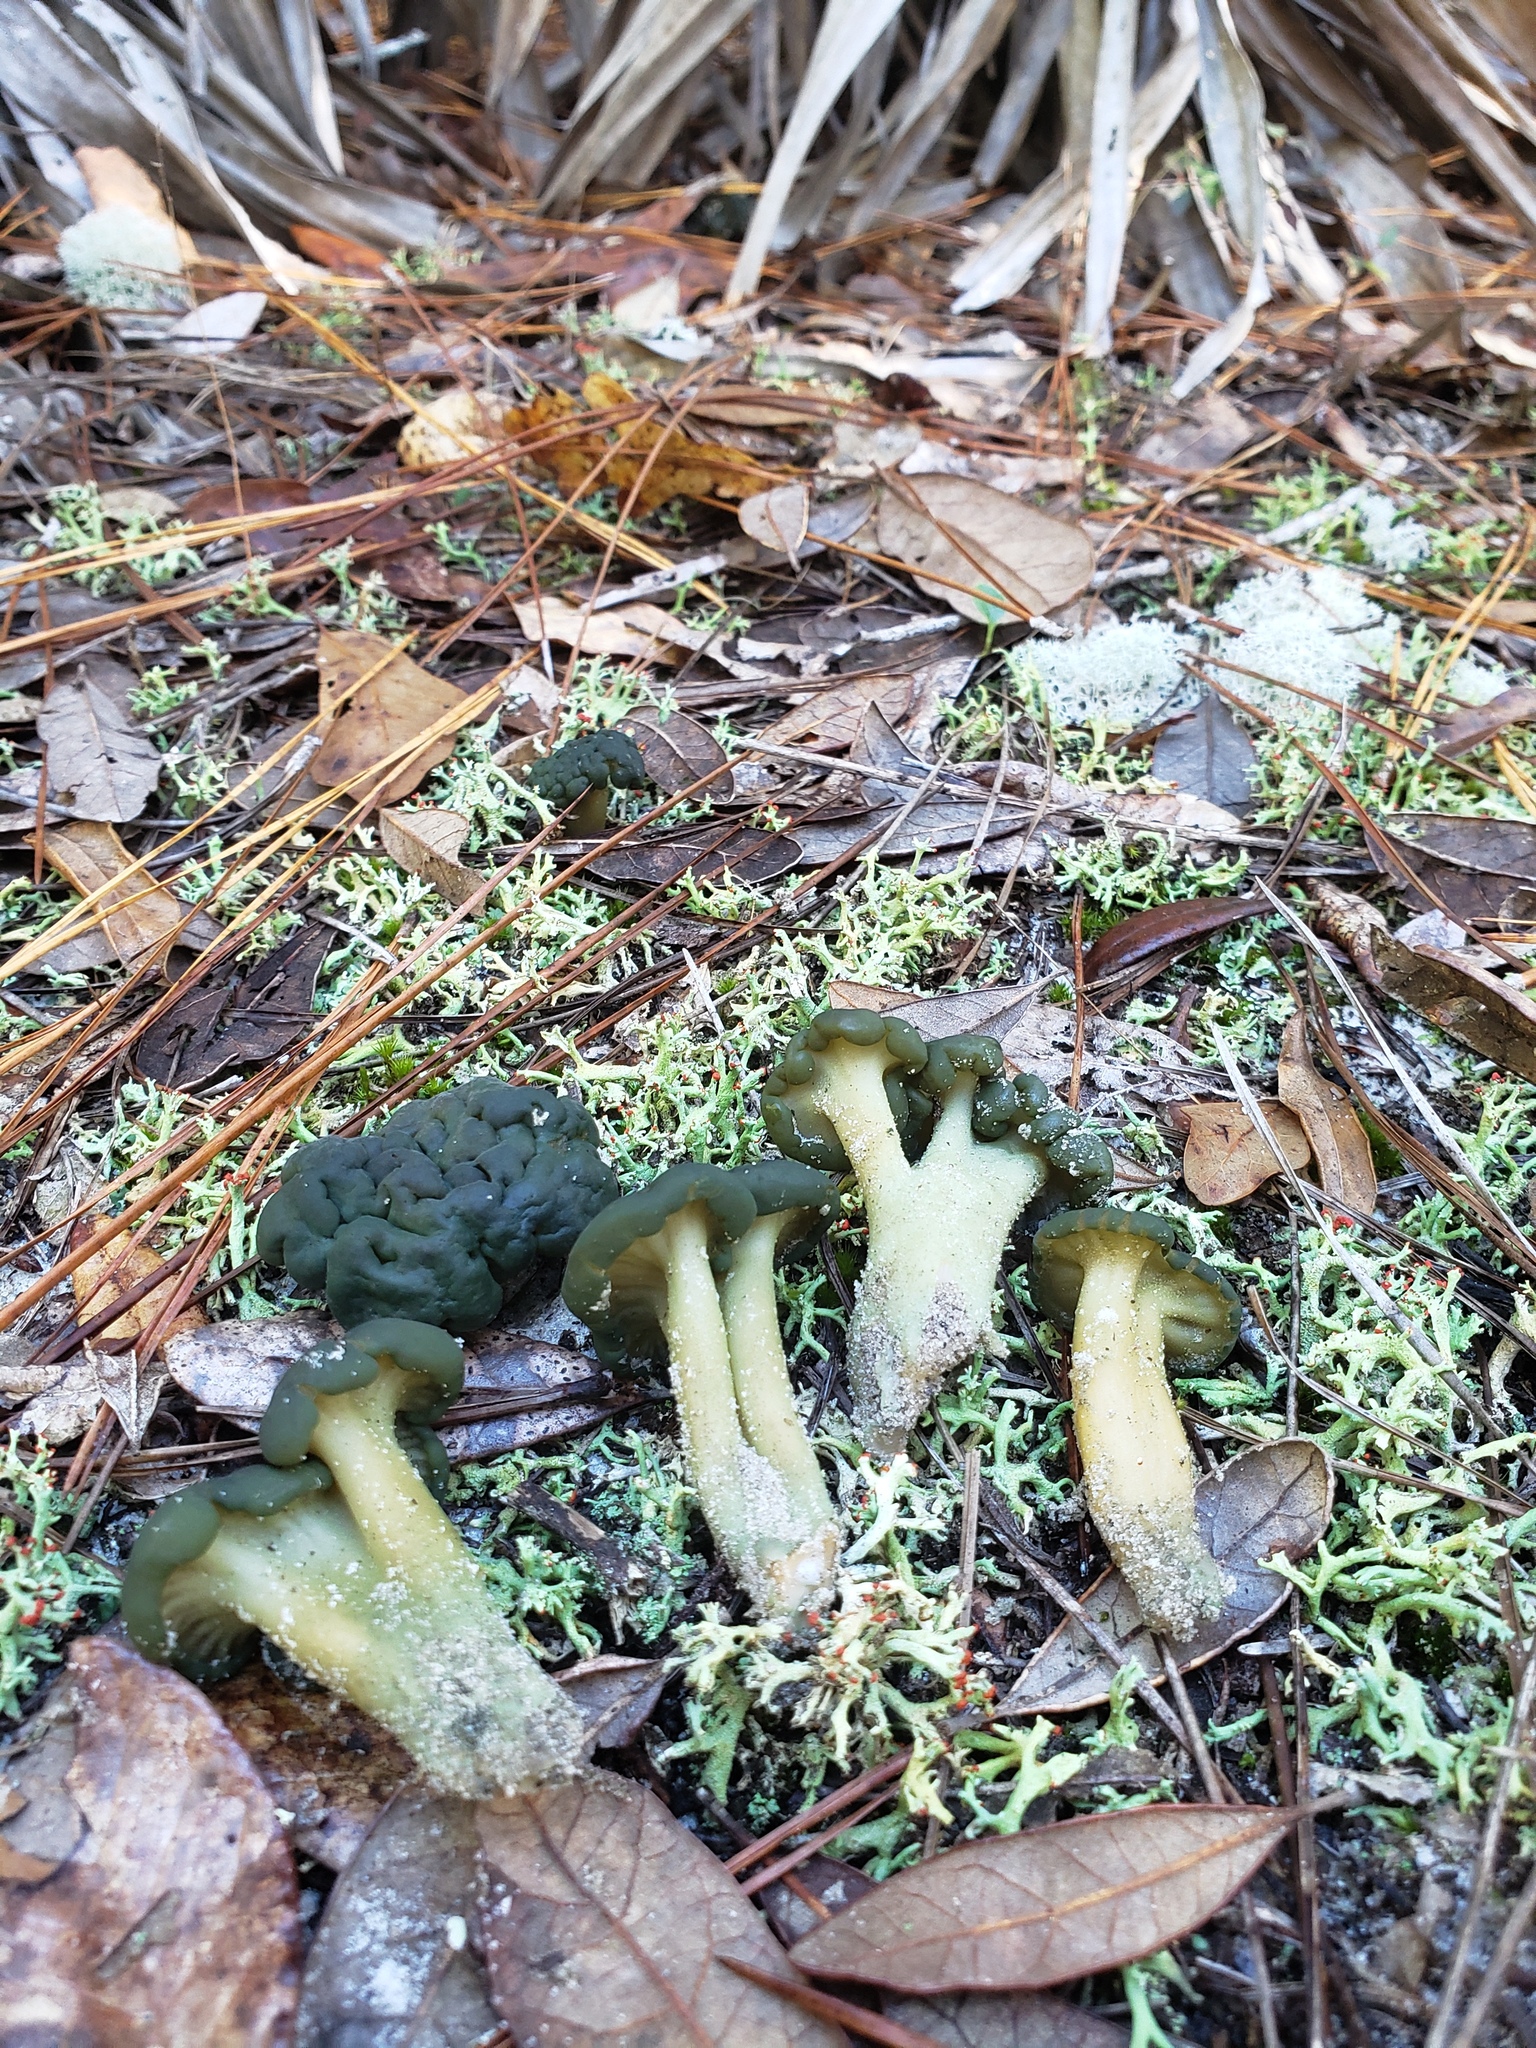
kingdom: Fungi
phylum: Ascomycota
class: Leotiomycetes
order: Leotiales
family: Leotiaceae
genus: Leotia
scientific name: Leotia lubrica
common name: Jellybaby
